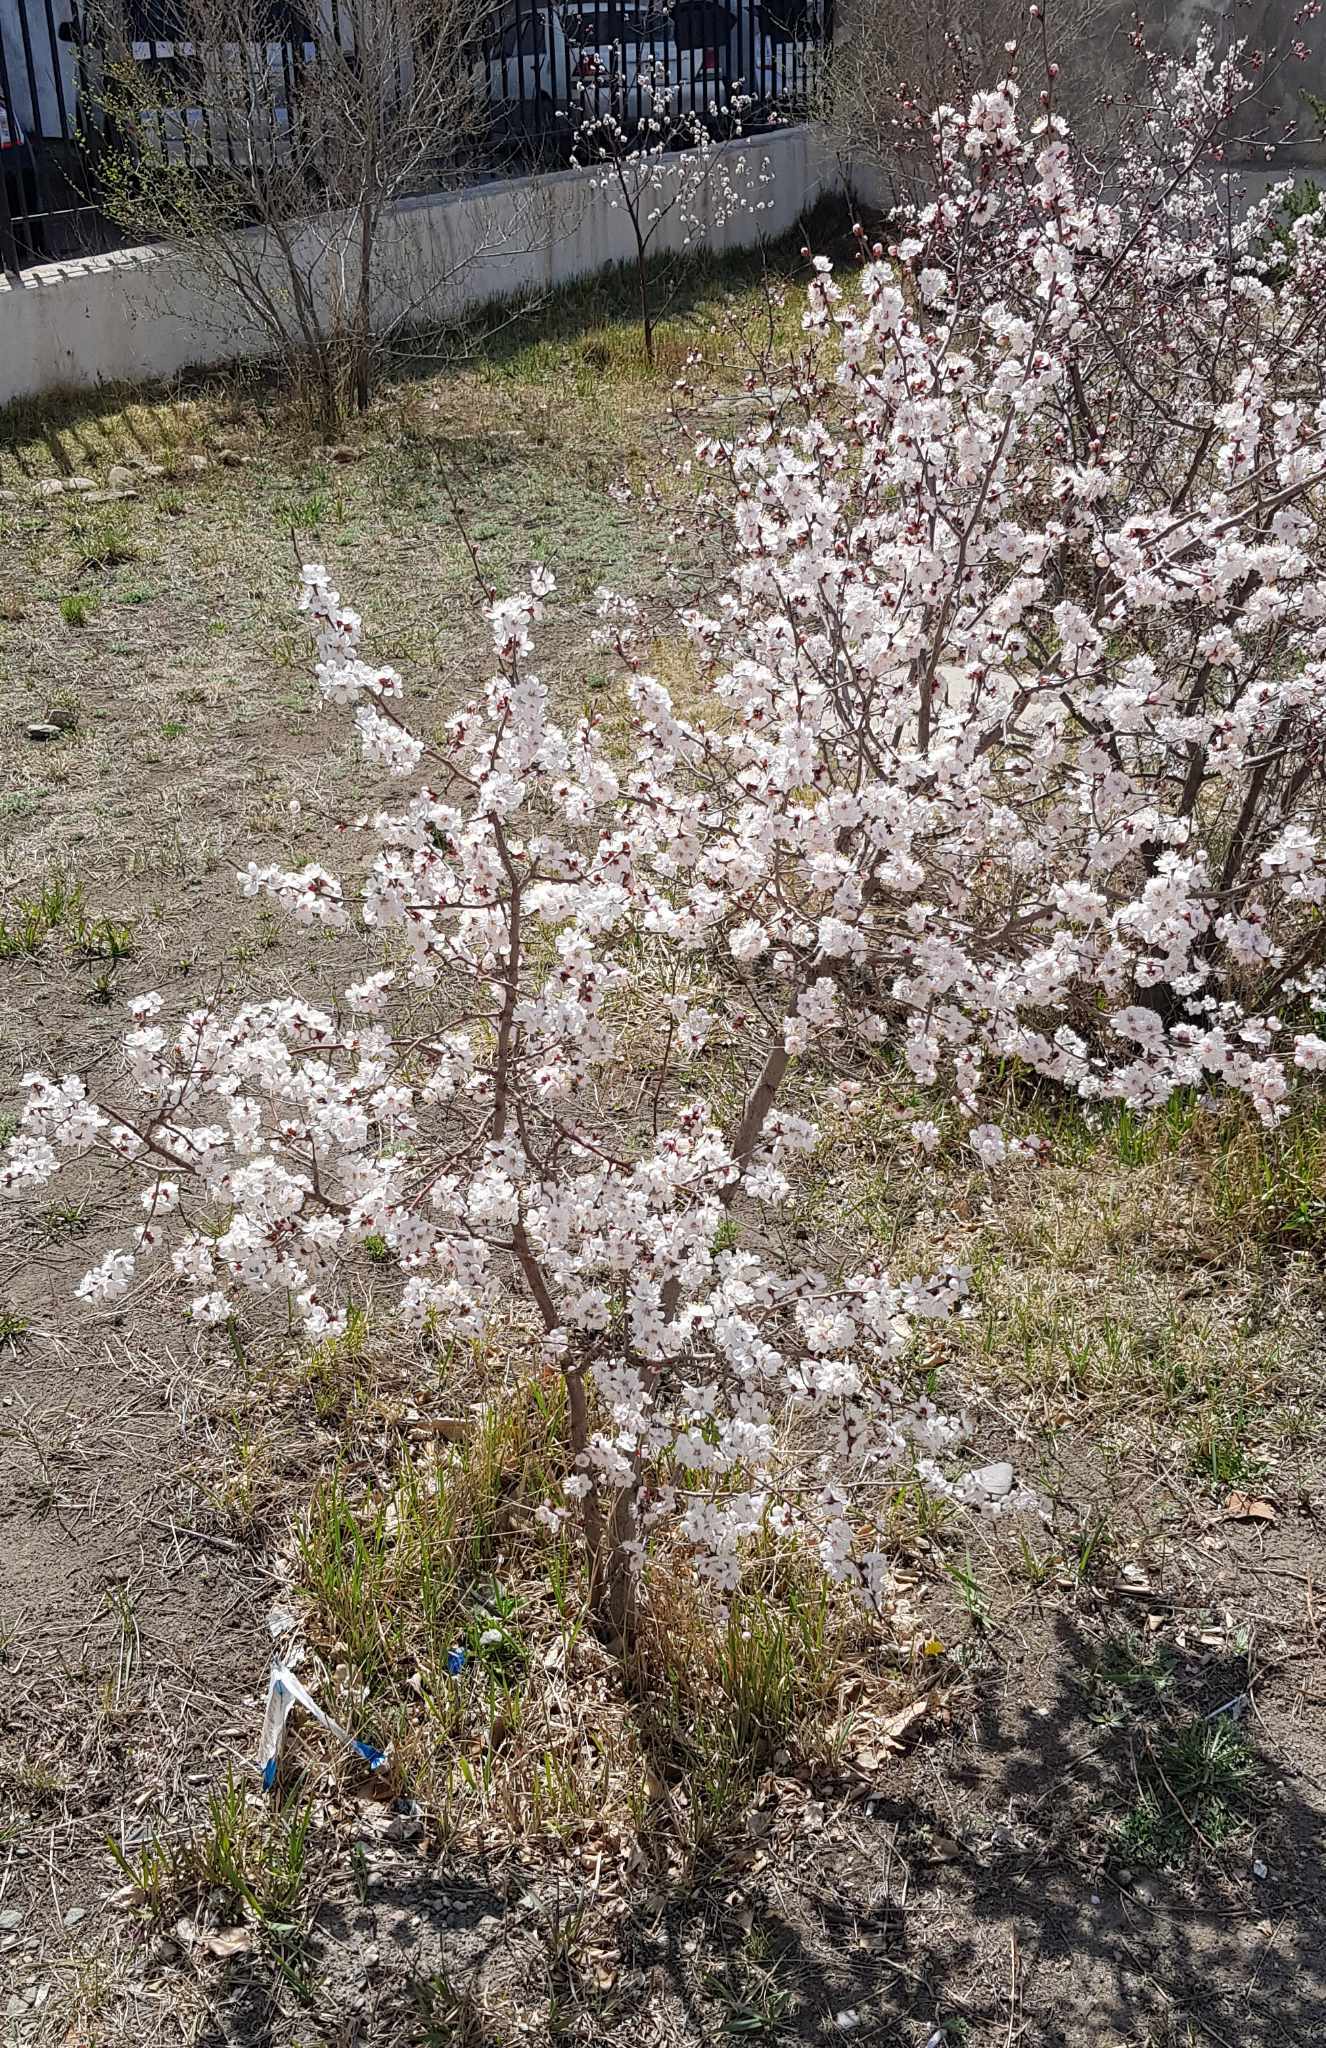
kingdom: Plantae
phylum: Tracheophyta
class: Magnoliopsida
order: Rosales
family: Rosaceae
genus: Prunus
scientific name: Prunus sibirica
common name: Siberian apricot
